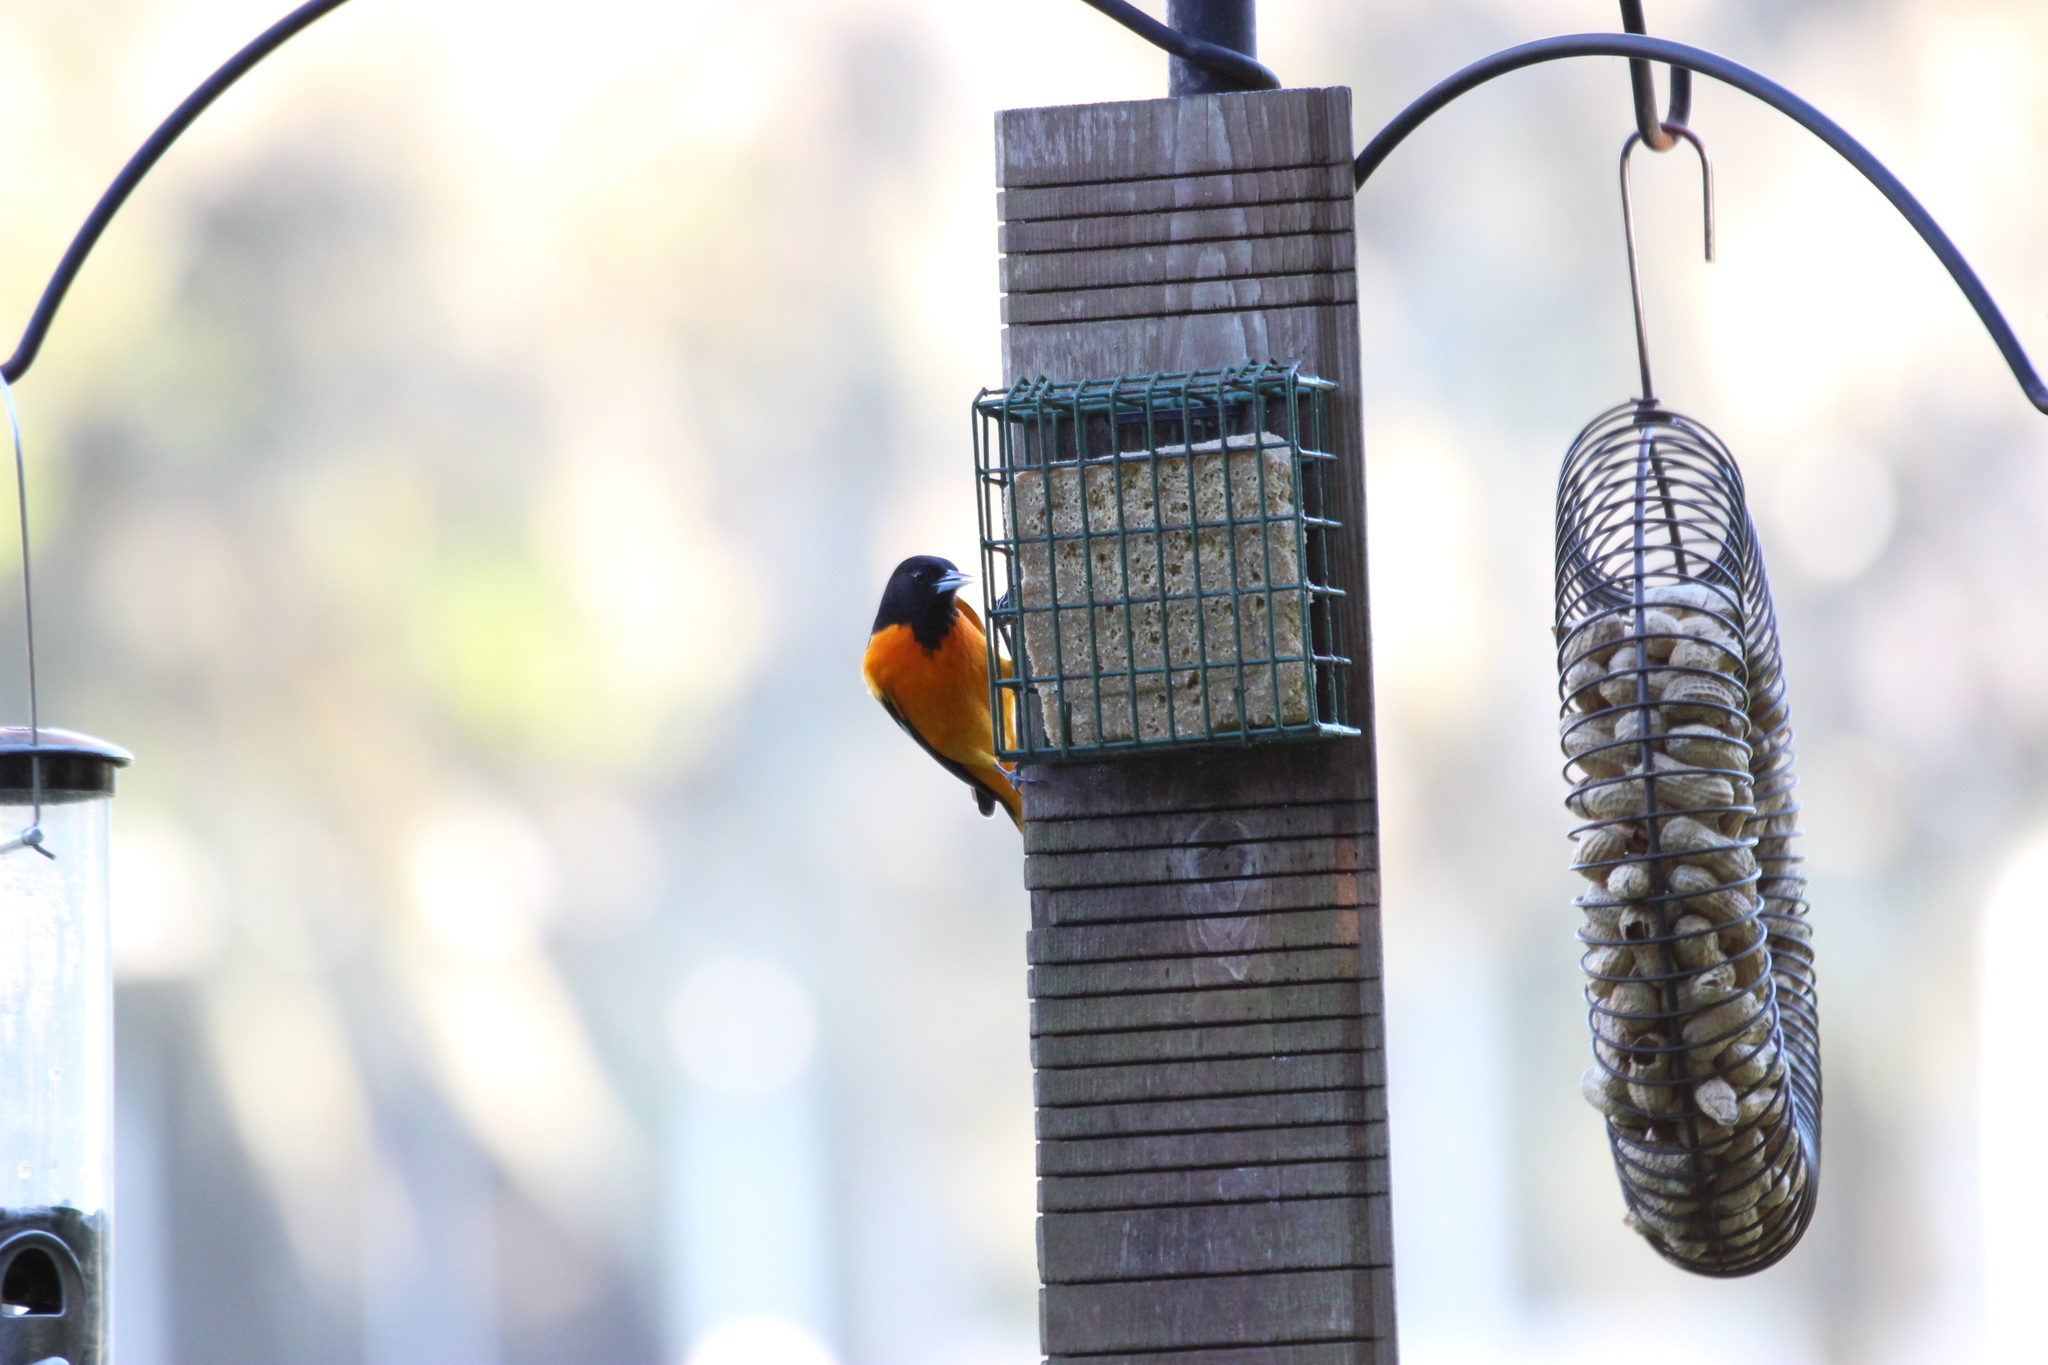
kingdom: Animalia
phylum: Chordata
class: Aves
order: Passeriformes
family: Icteridae
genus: Icterus
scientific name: Icterus galbula
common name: Baltimore oriole
